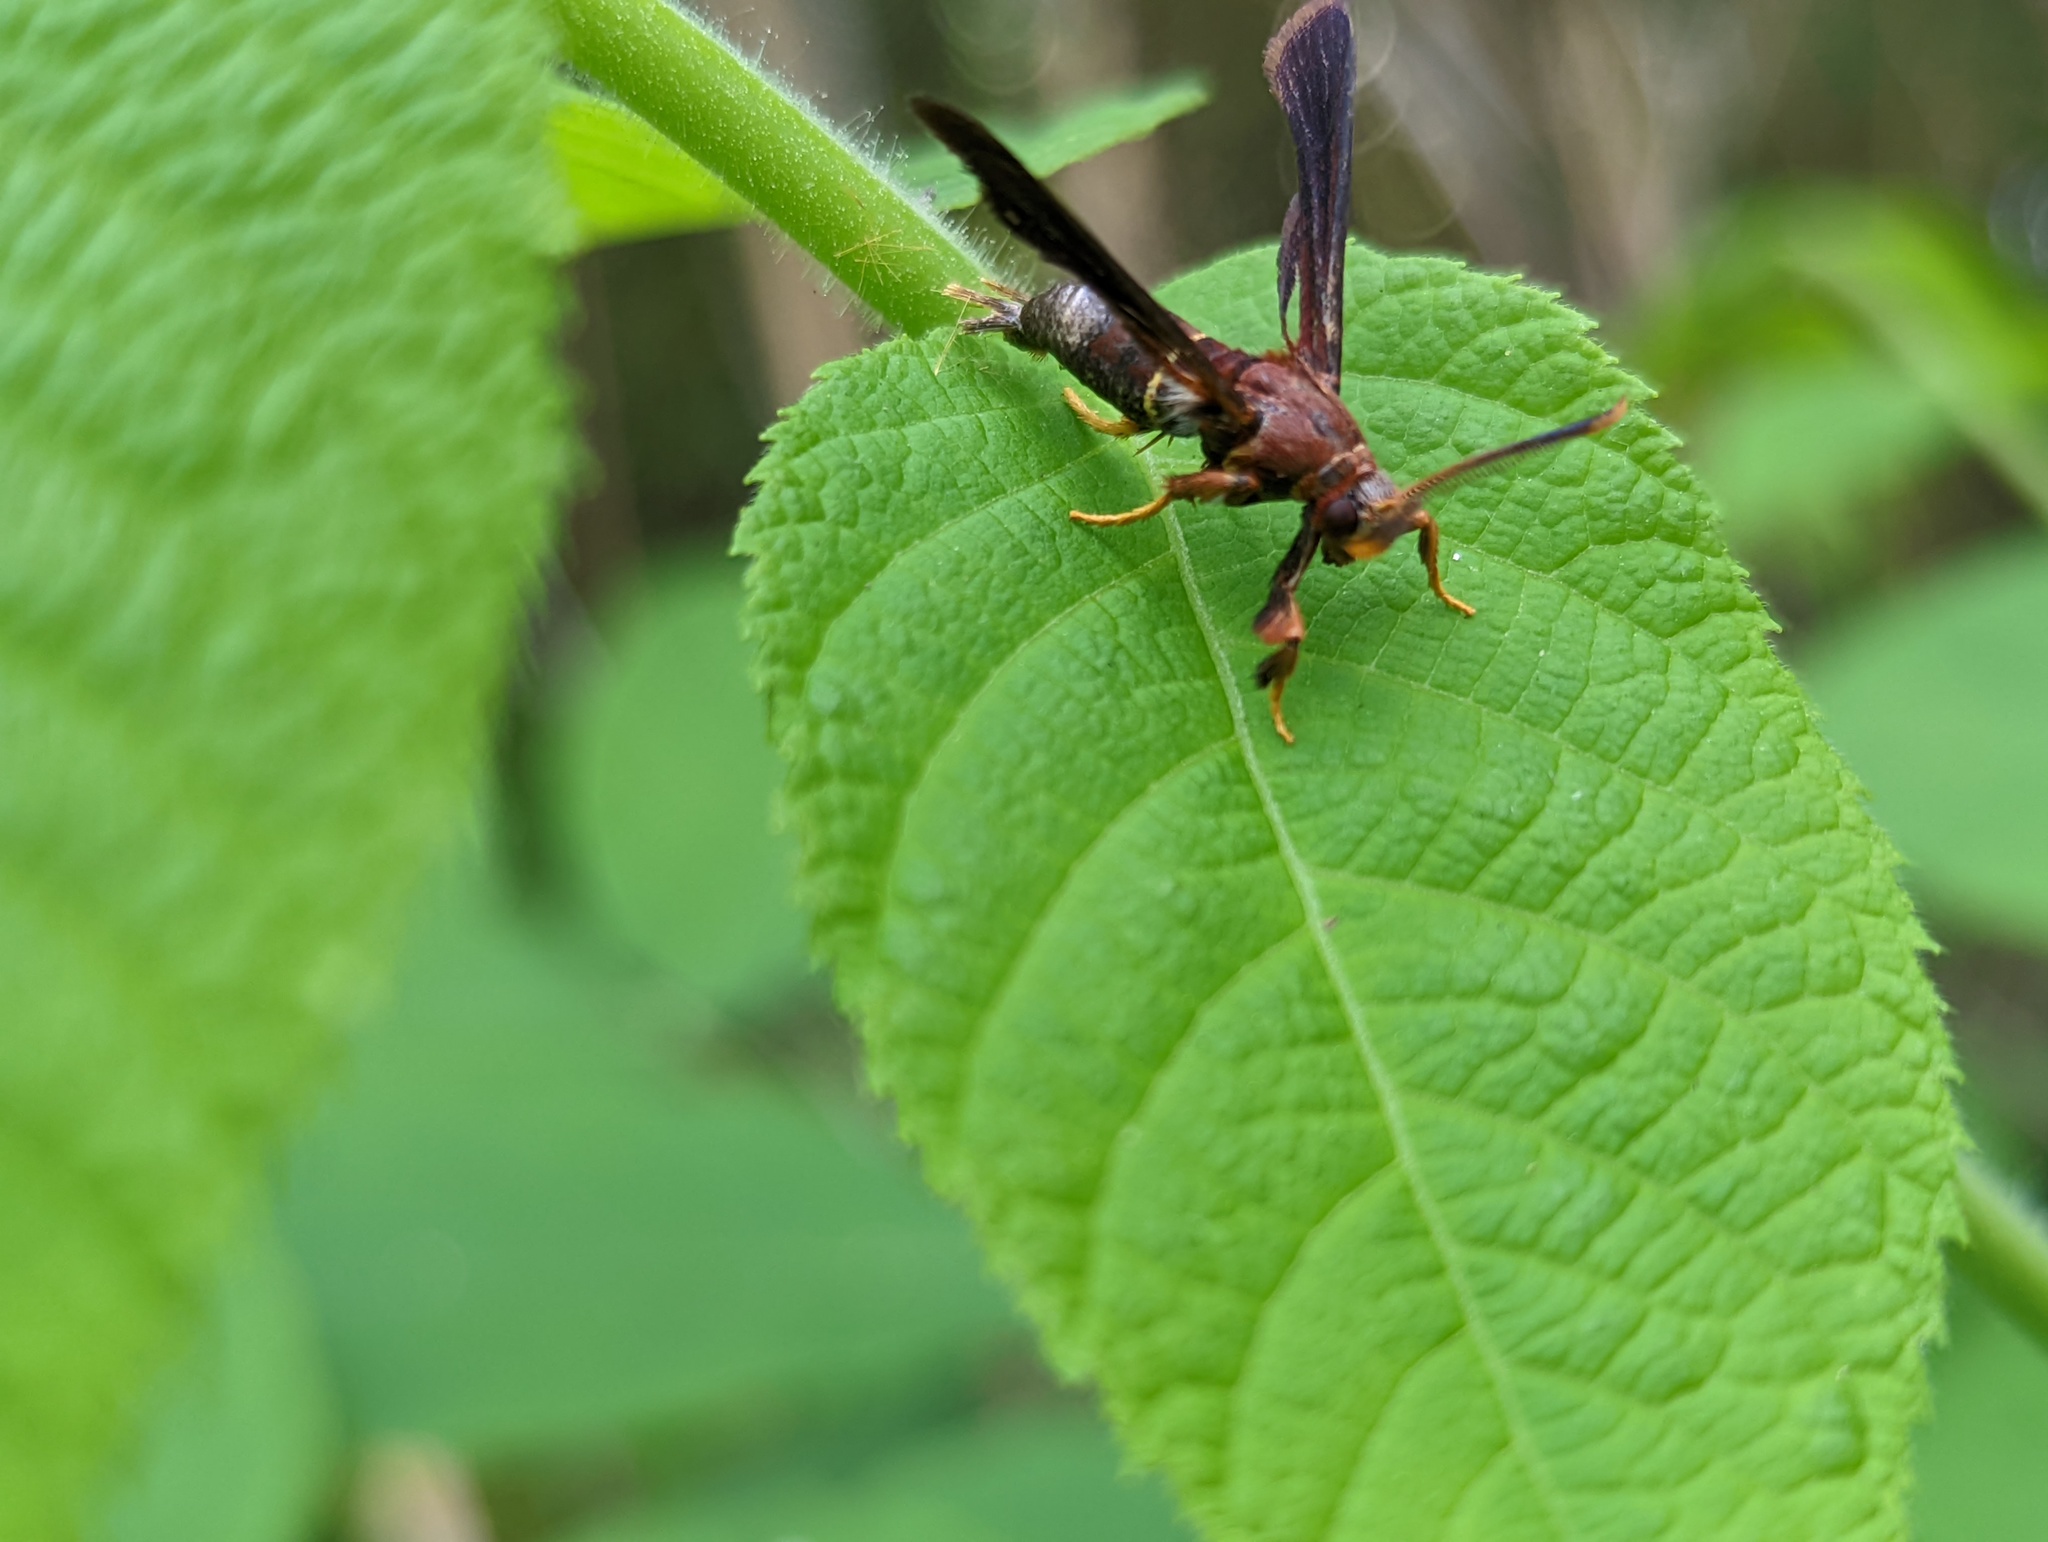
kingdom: Animalia
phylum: Arthropoda
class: Insecta
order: Lepidoptera
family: Sesiidae
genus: Vitacea
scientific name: Vitacea scepsiformis
